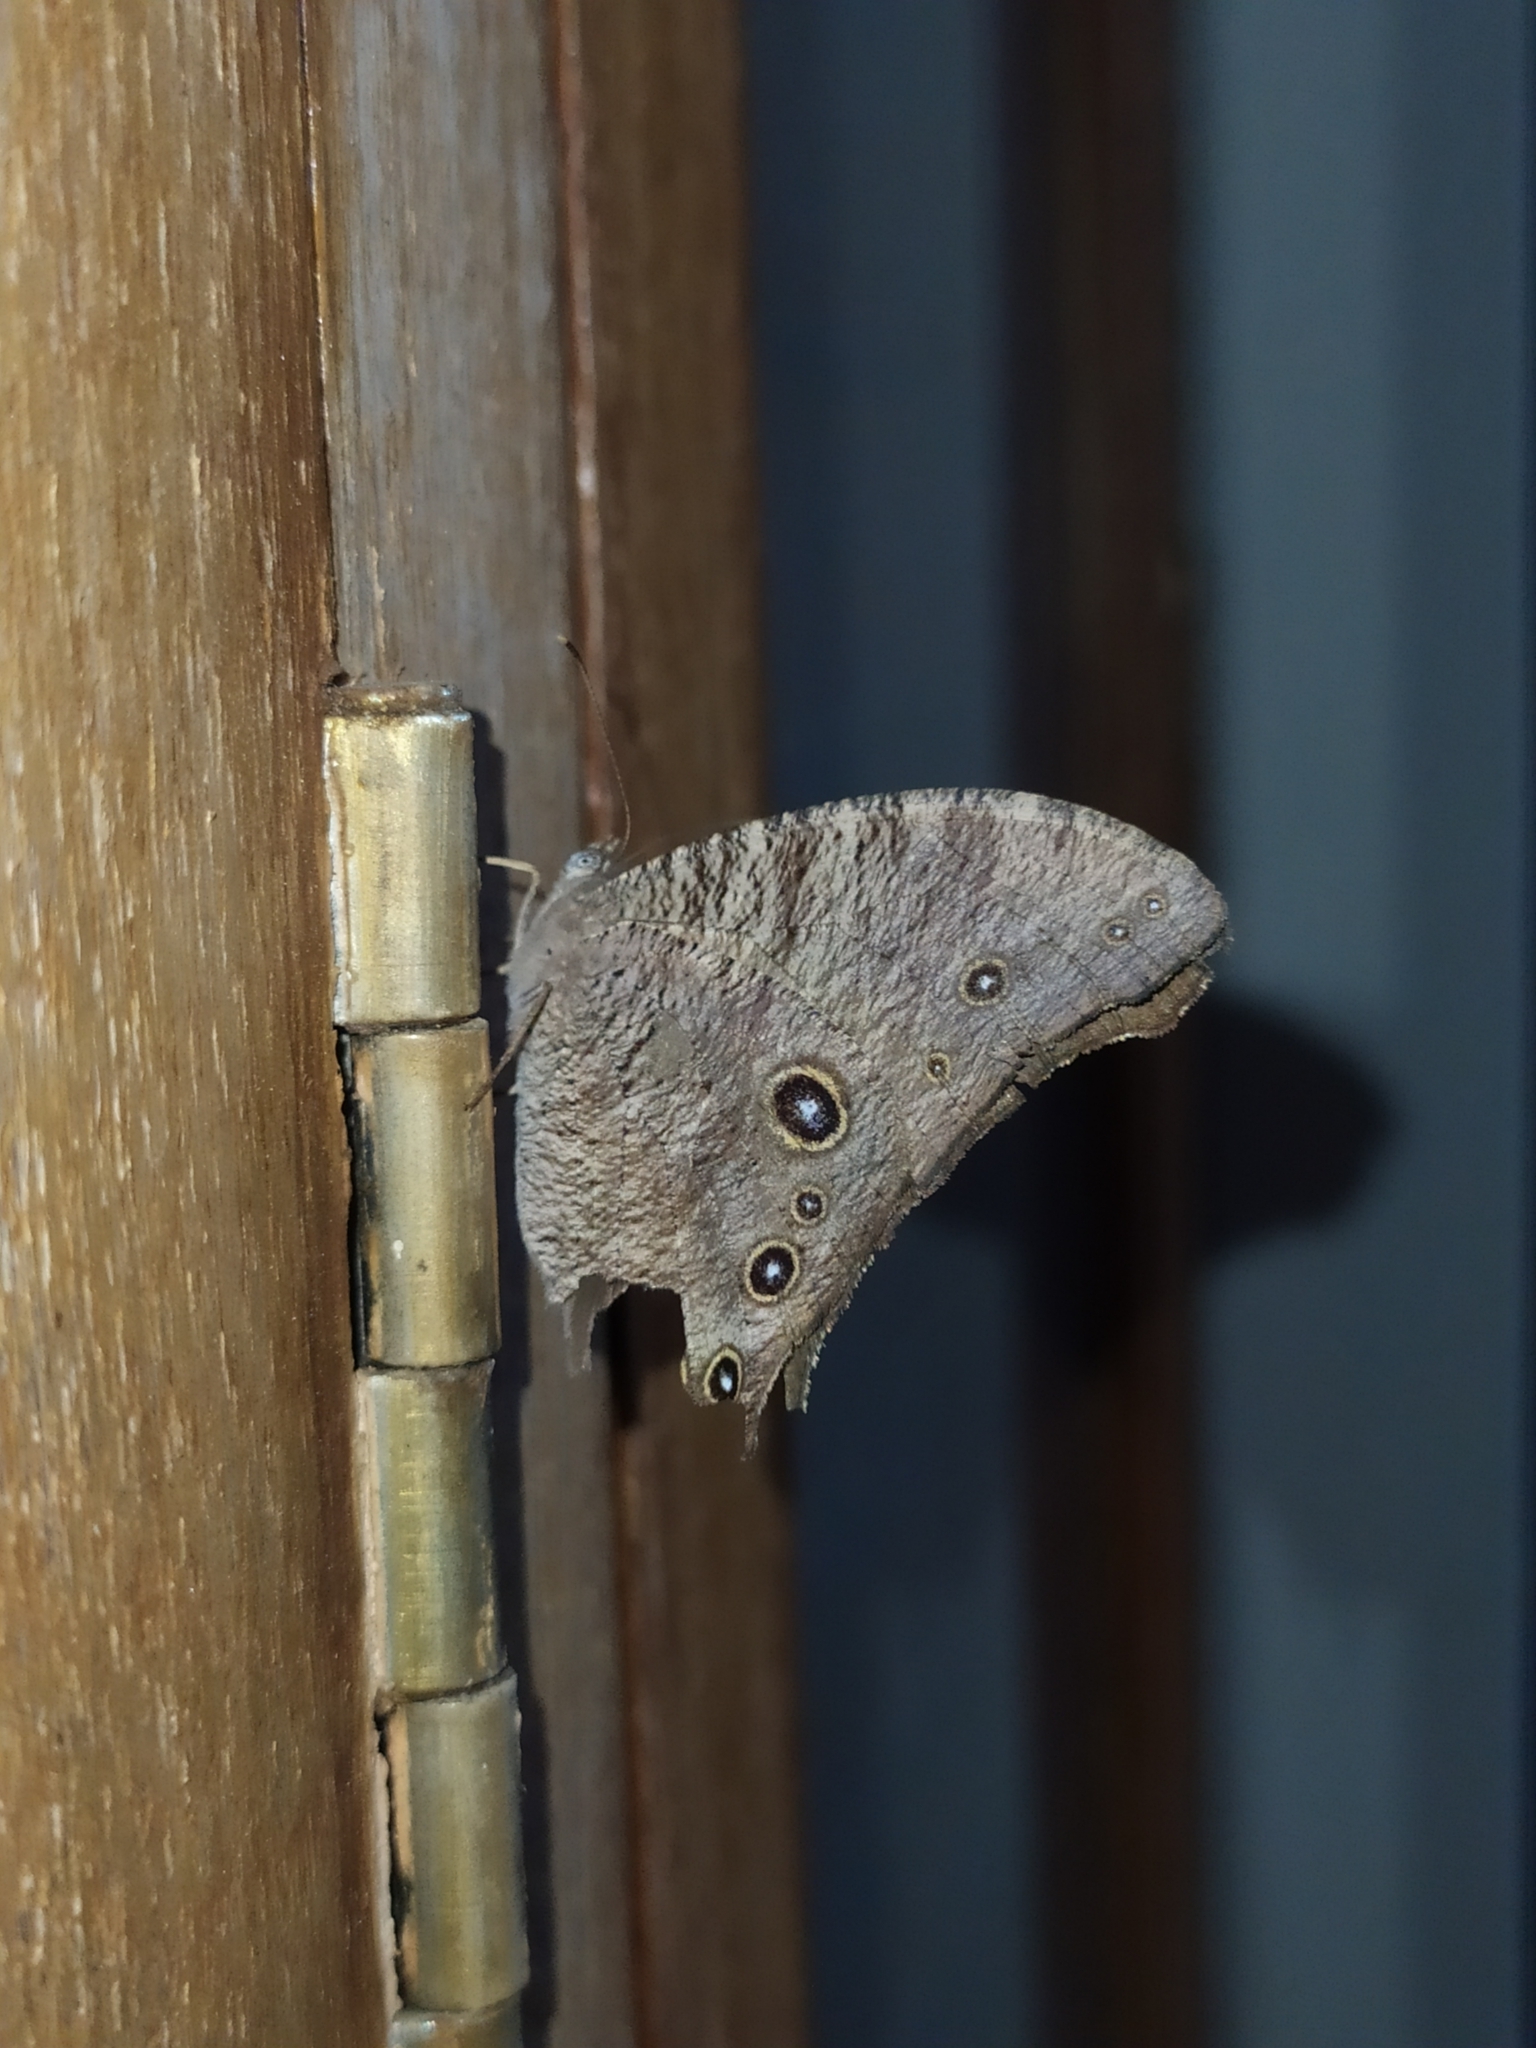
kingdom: Animalia
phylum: Arthropoda
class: Insecta
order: Lepidoptera
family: Nymphalidae
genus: Melanitis
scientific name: Melanitis leda
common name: Twilight brown
